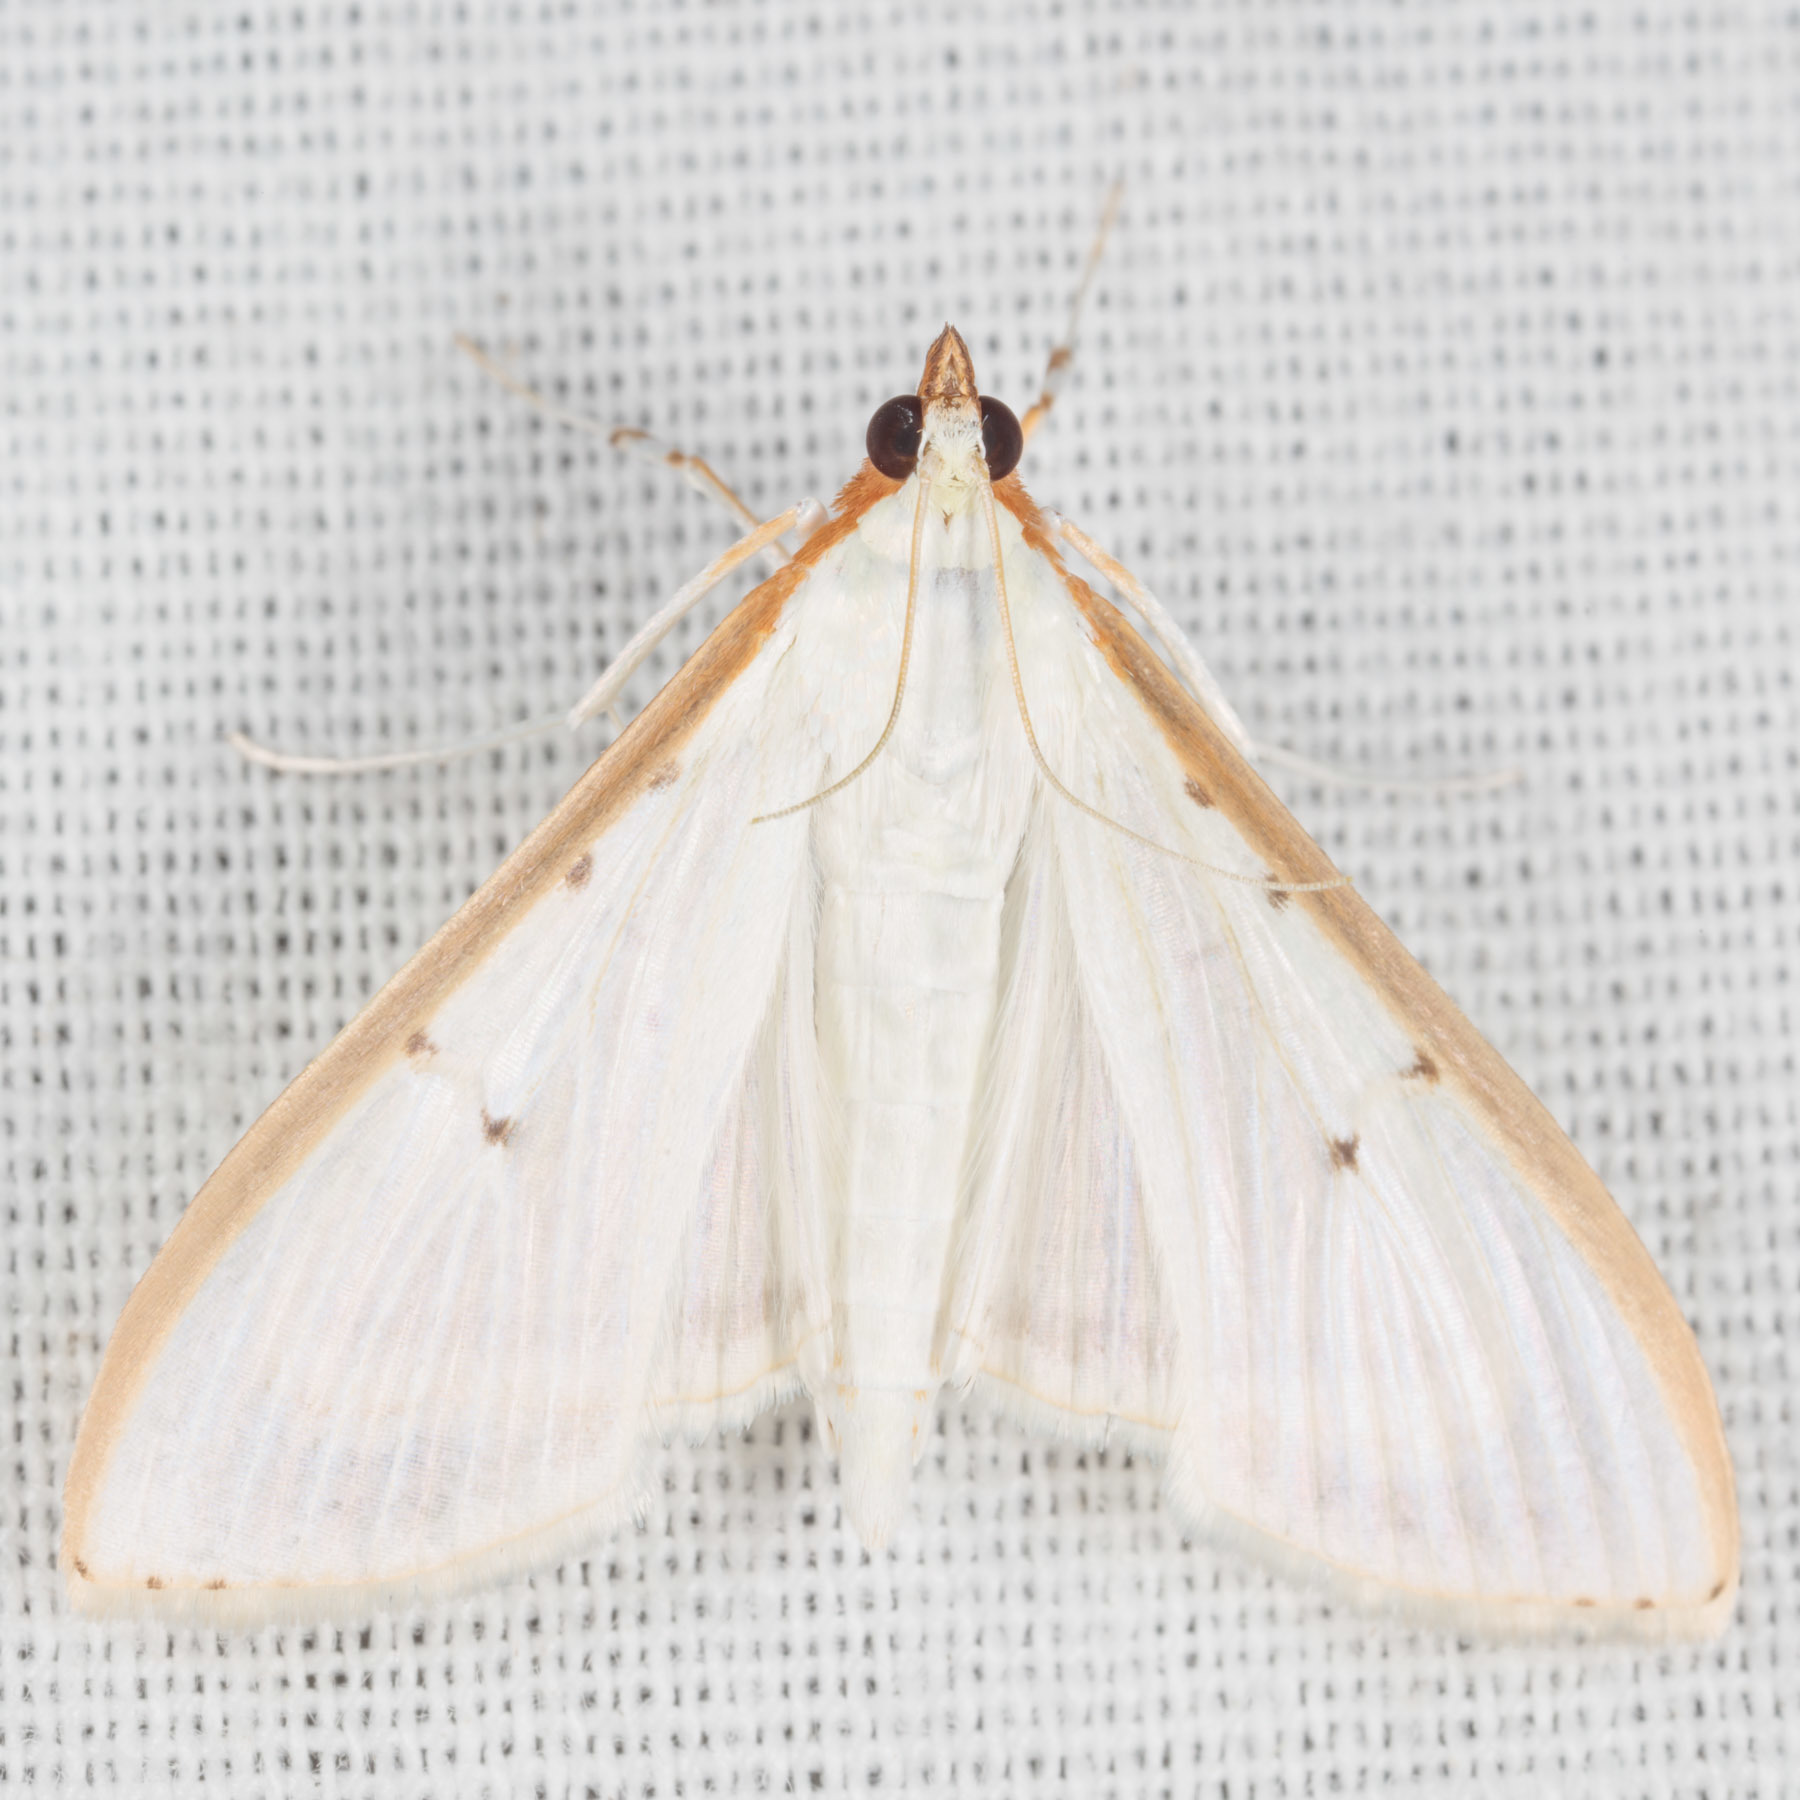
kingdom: Animalia
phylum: Arthropoda
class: Insecta
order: Lepidoptera
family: Crambidae
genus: Palpita
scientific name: Palpita quadristigmalis
